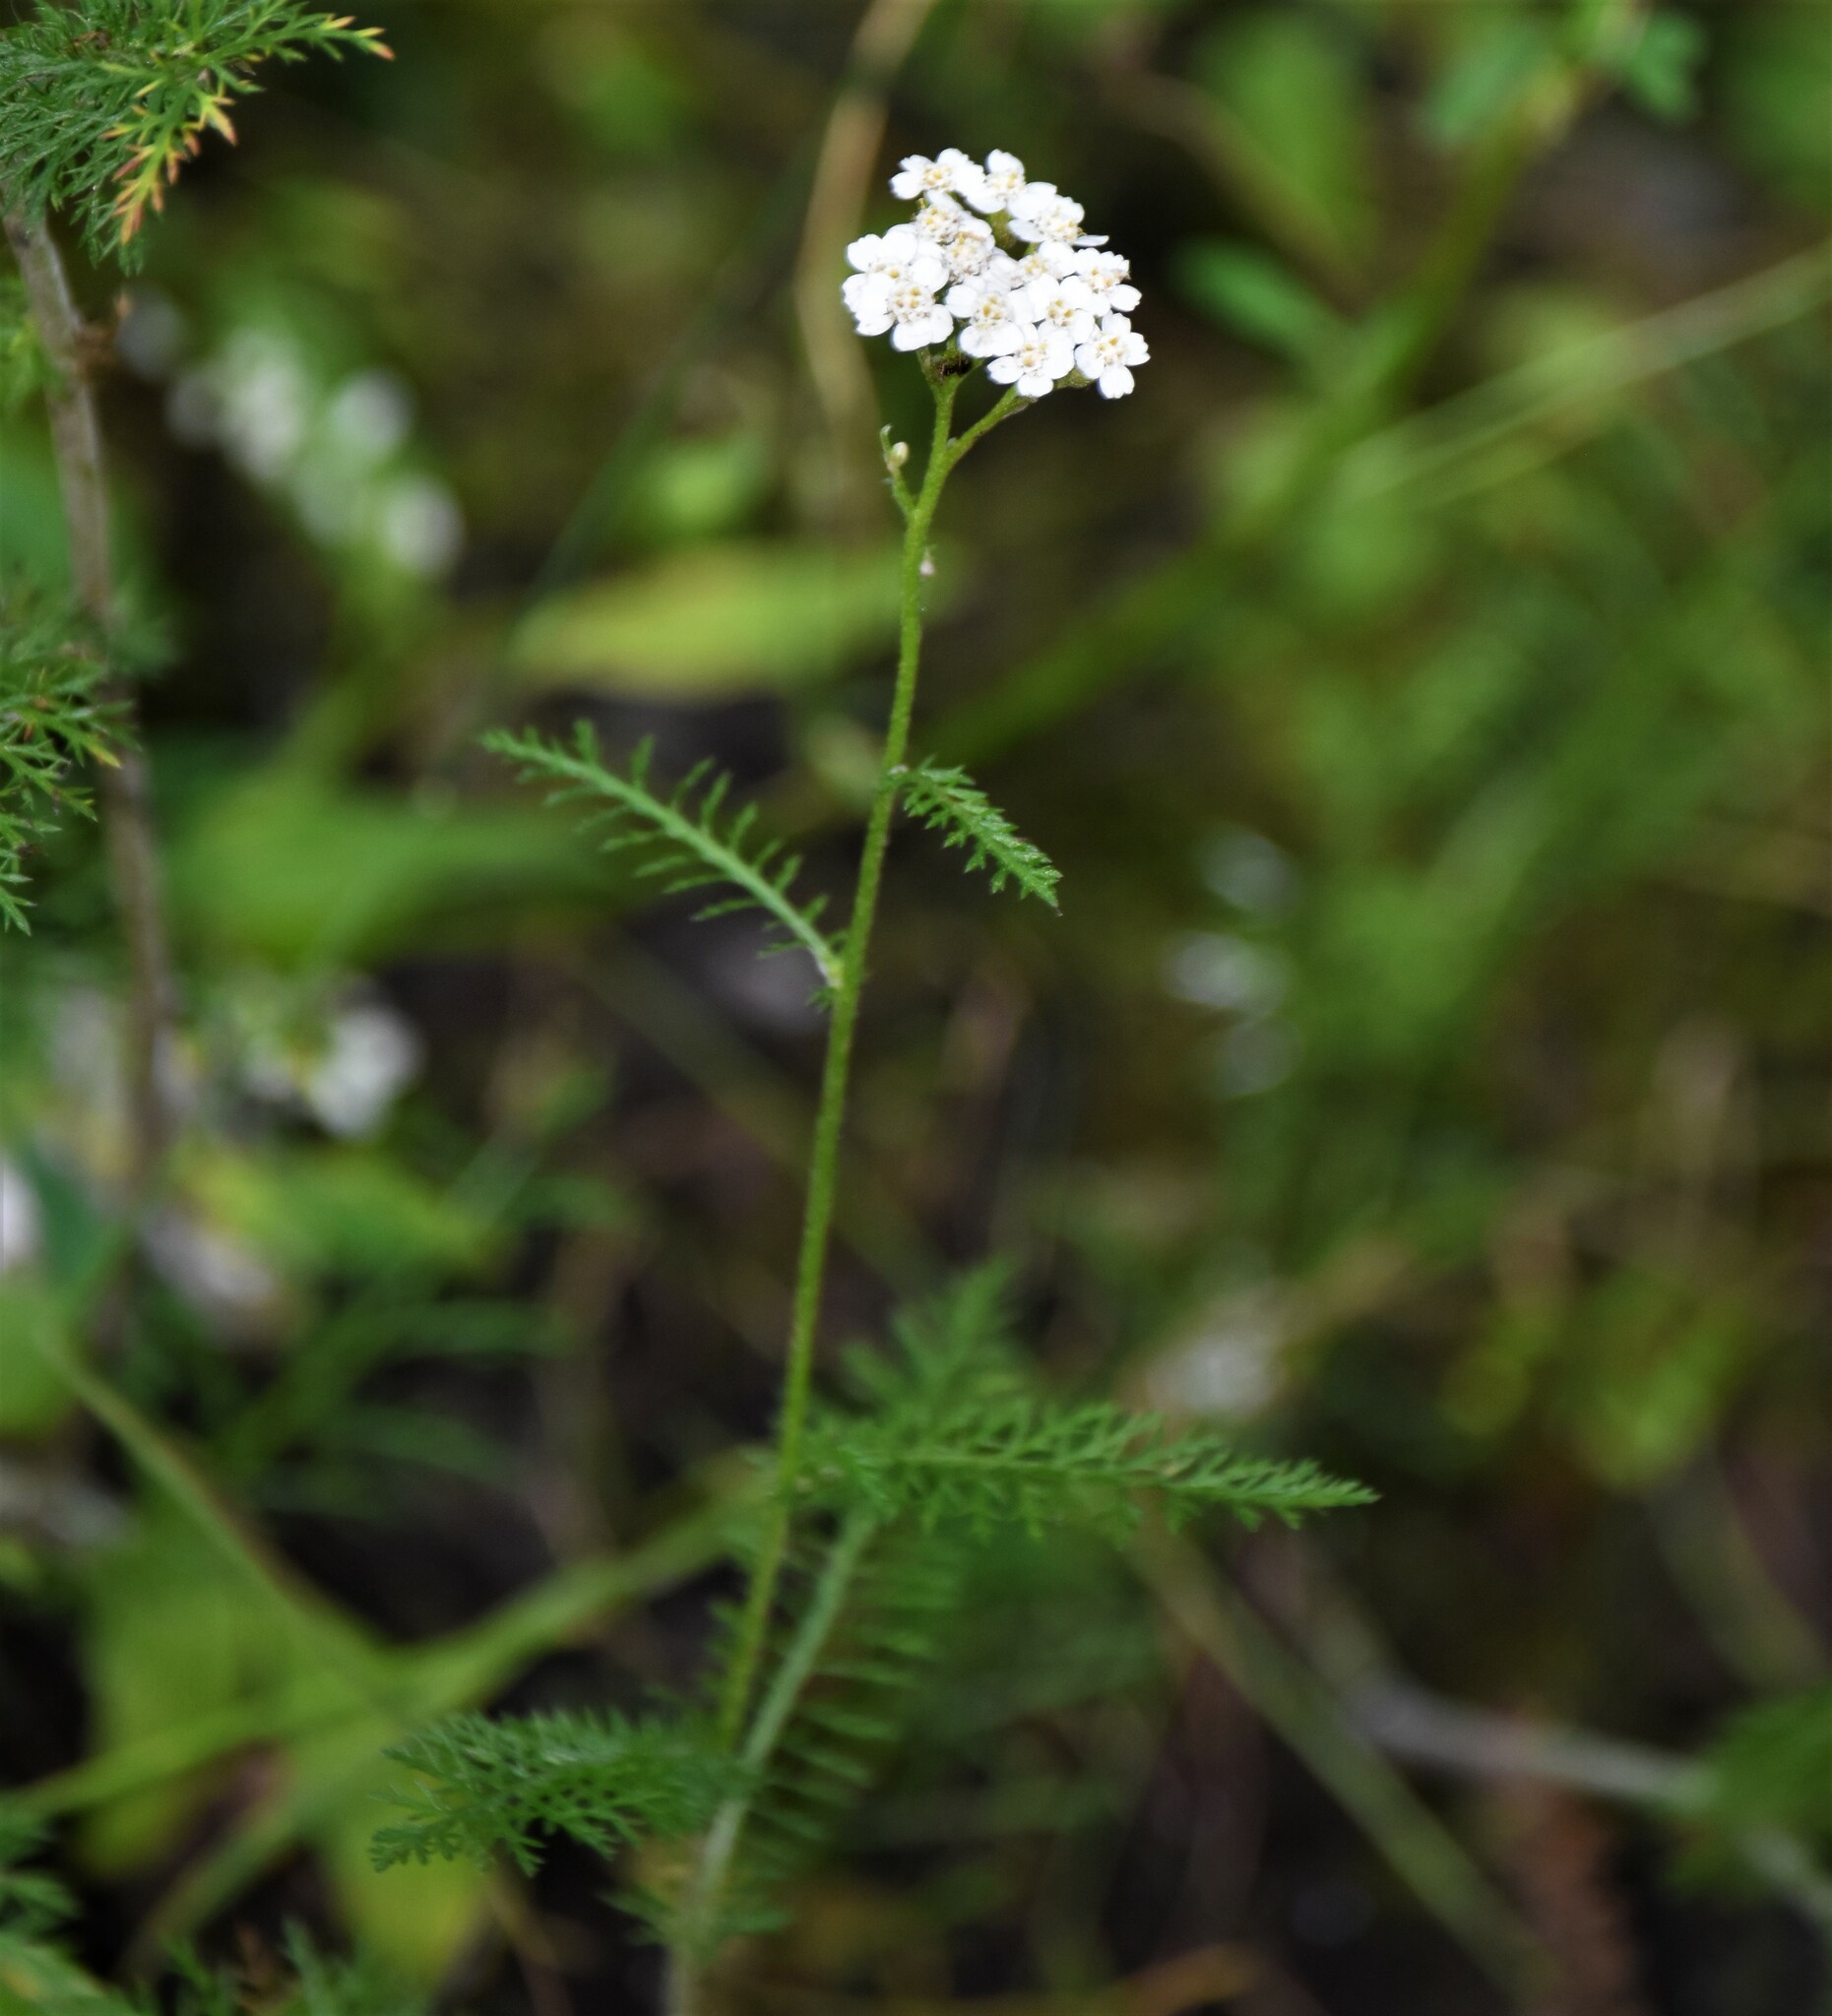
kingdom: Plantae
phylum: Tracheophyta
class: Magnoliopsida
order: Asterales
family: Asteraceae
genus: Achillea
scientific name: Achillea millefolium
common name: Yarrow
